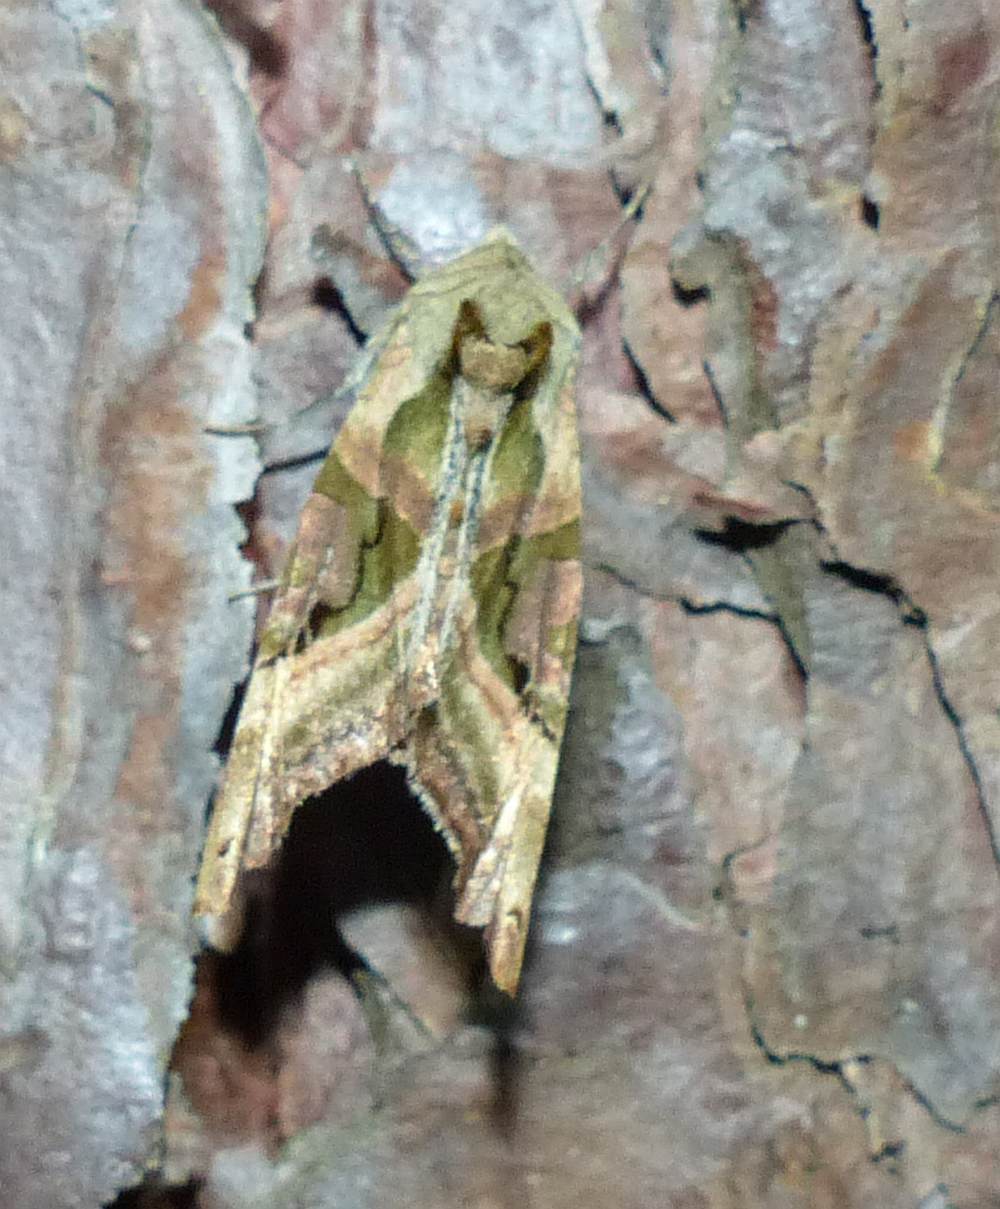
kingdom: Animalia
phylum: Arthropoda
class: Insecta
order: Lepidoptera
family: Noctuidae
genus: Phlogophora
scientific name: Phlogophora iris
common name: Olive angle shades
